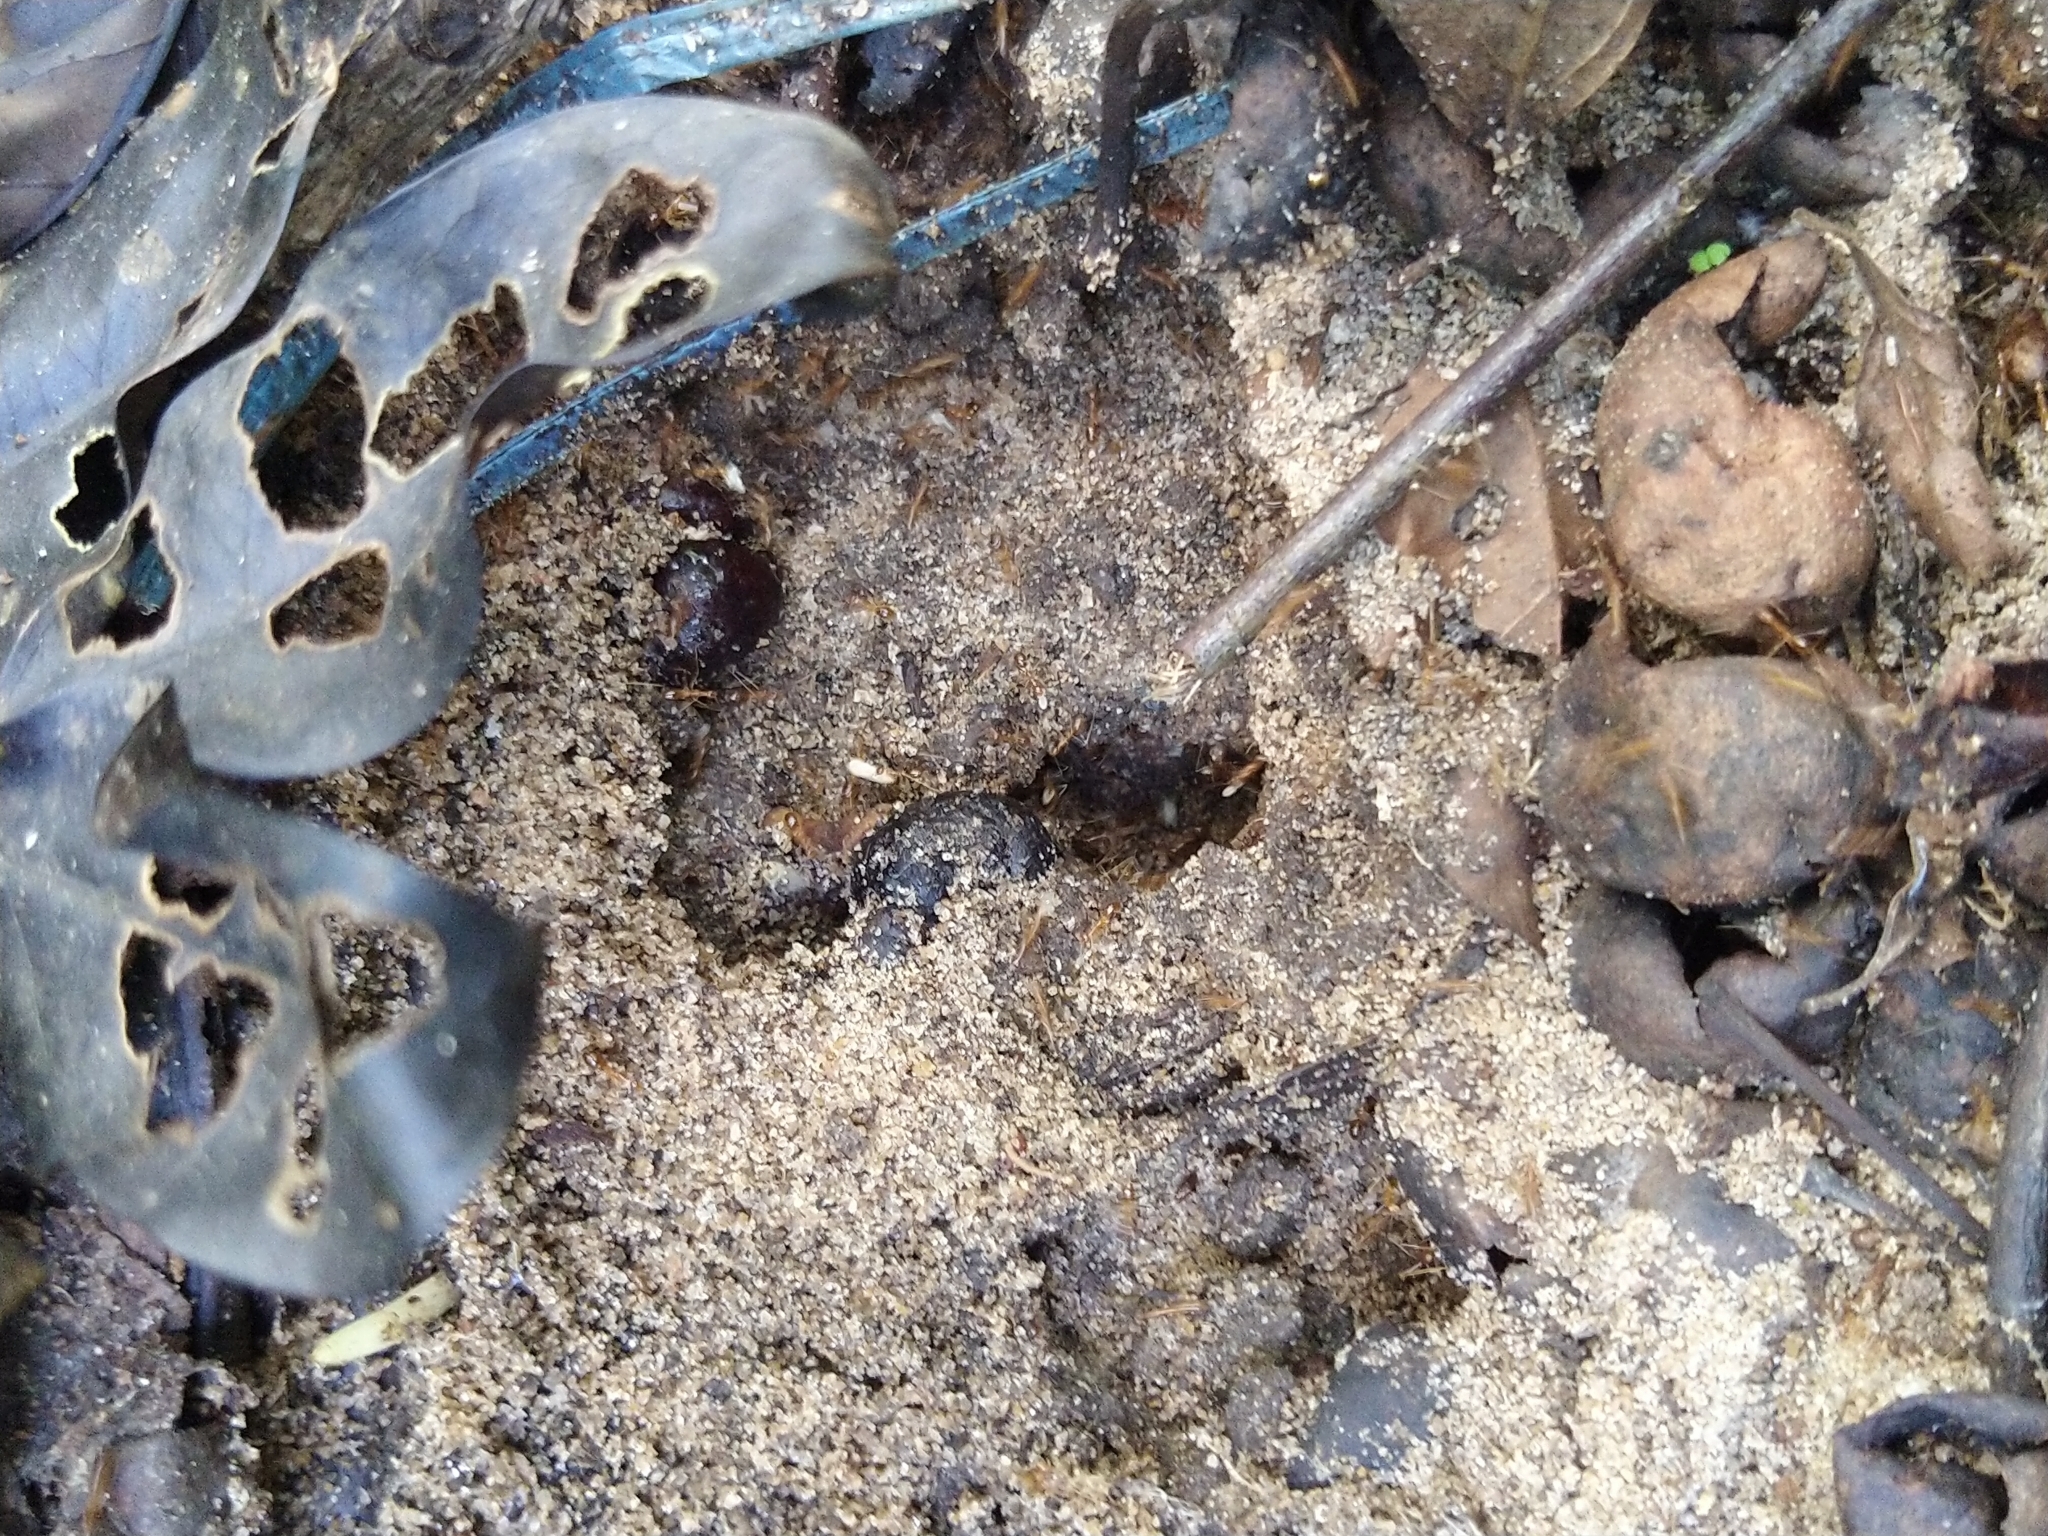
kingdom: Animalia
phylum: Arthropoda
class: Insecta
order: Hymenoptera
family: Formicidae
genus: Anoplolepis
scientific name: Anoplolepis gracilipes
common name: Ant
